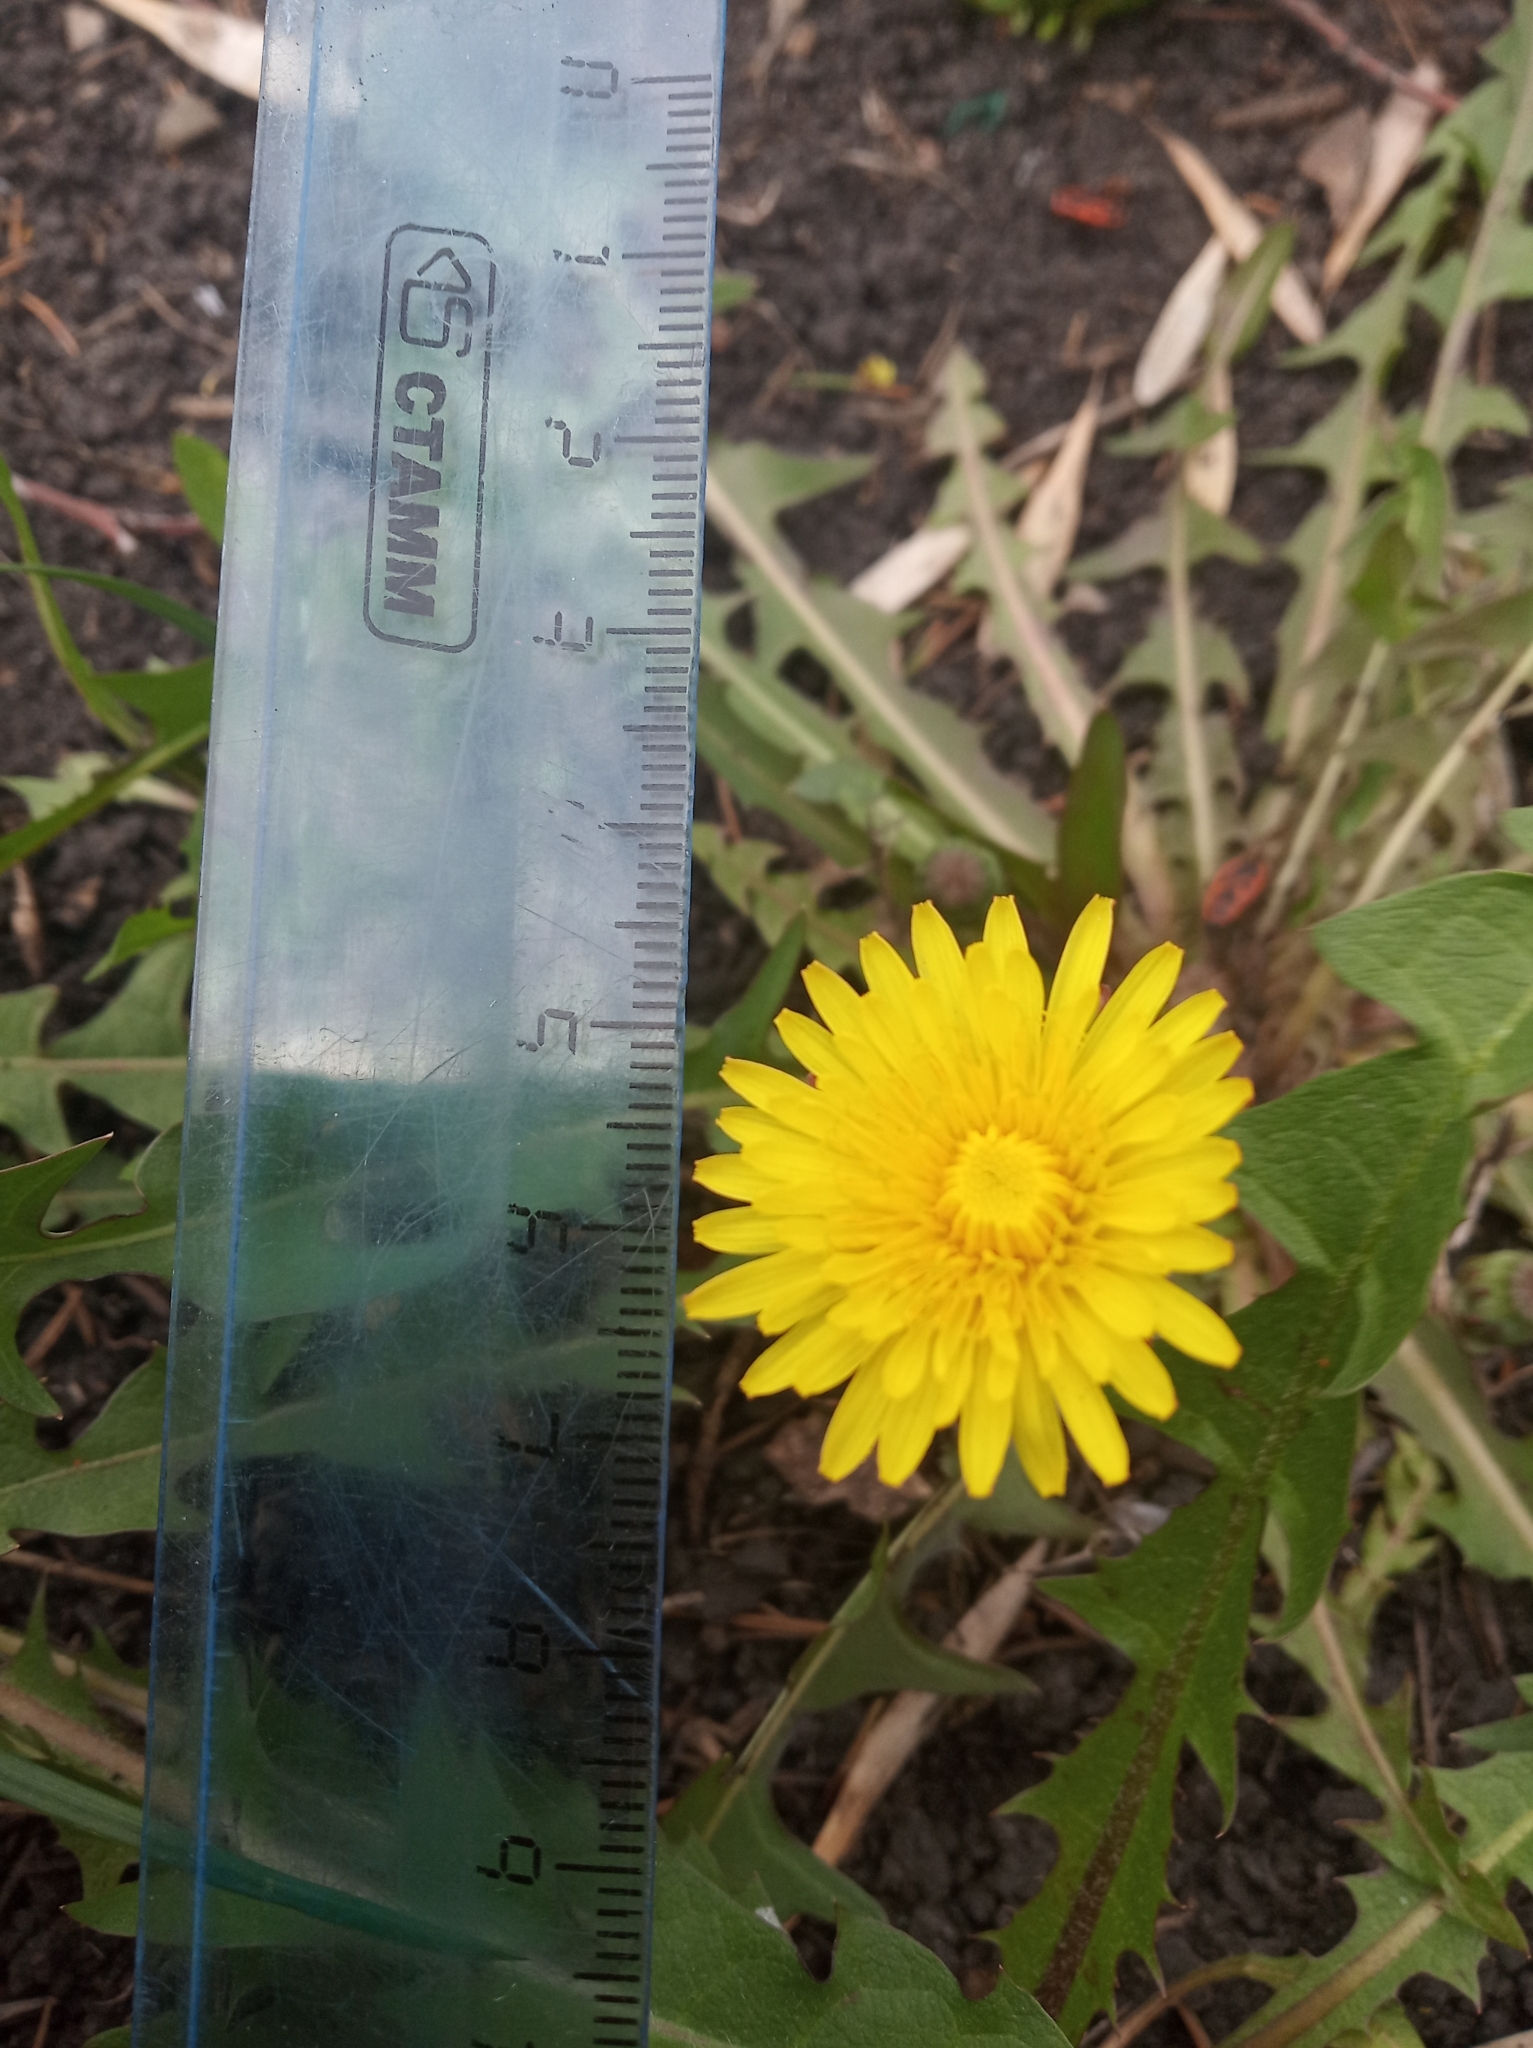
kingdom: Plantae
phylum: Tracheophyta
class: Magnoliopsida
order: Asterales
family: Asteraceae
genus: Taraxacum
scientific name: Taraxacum officinale
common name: Common dandelion
